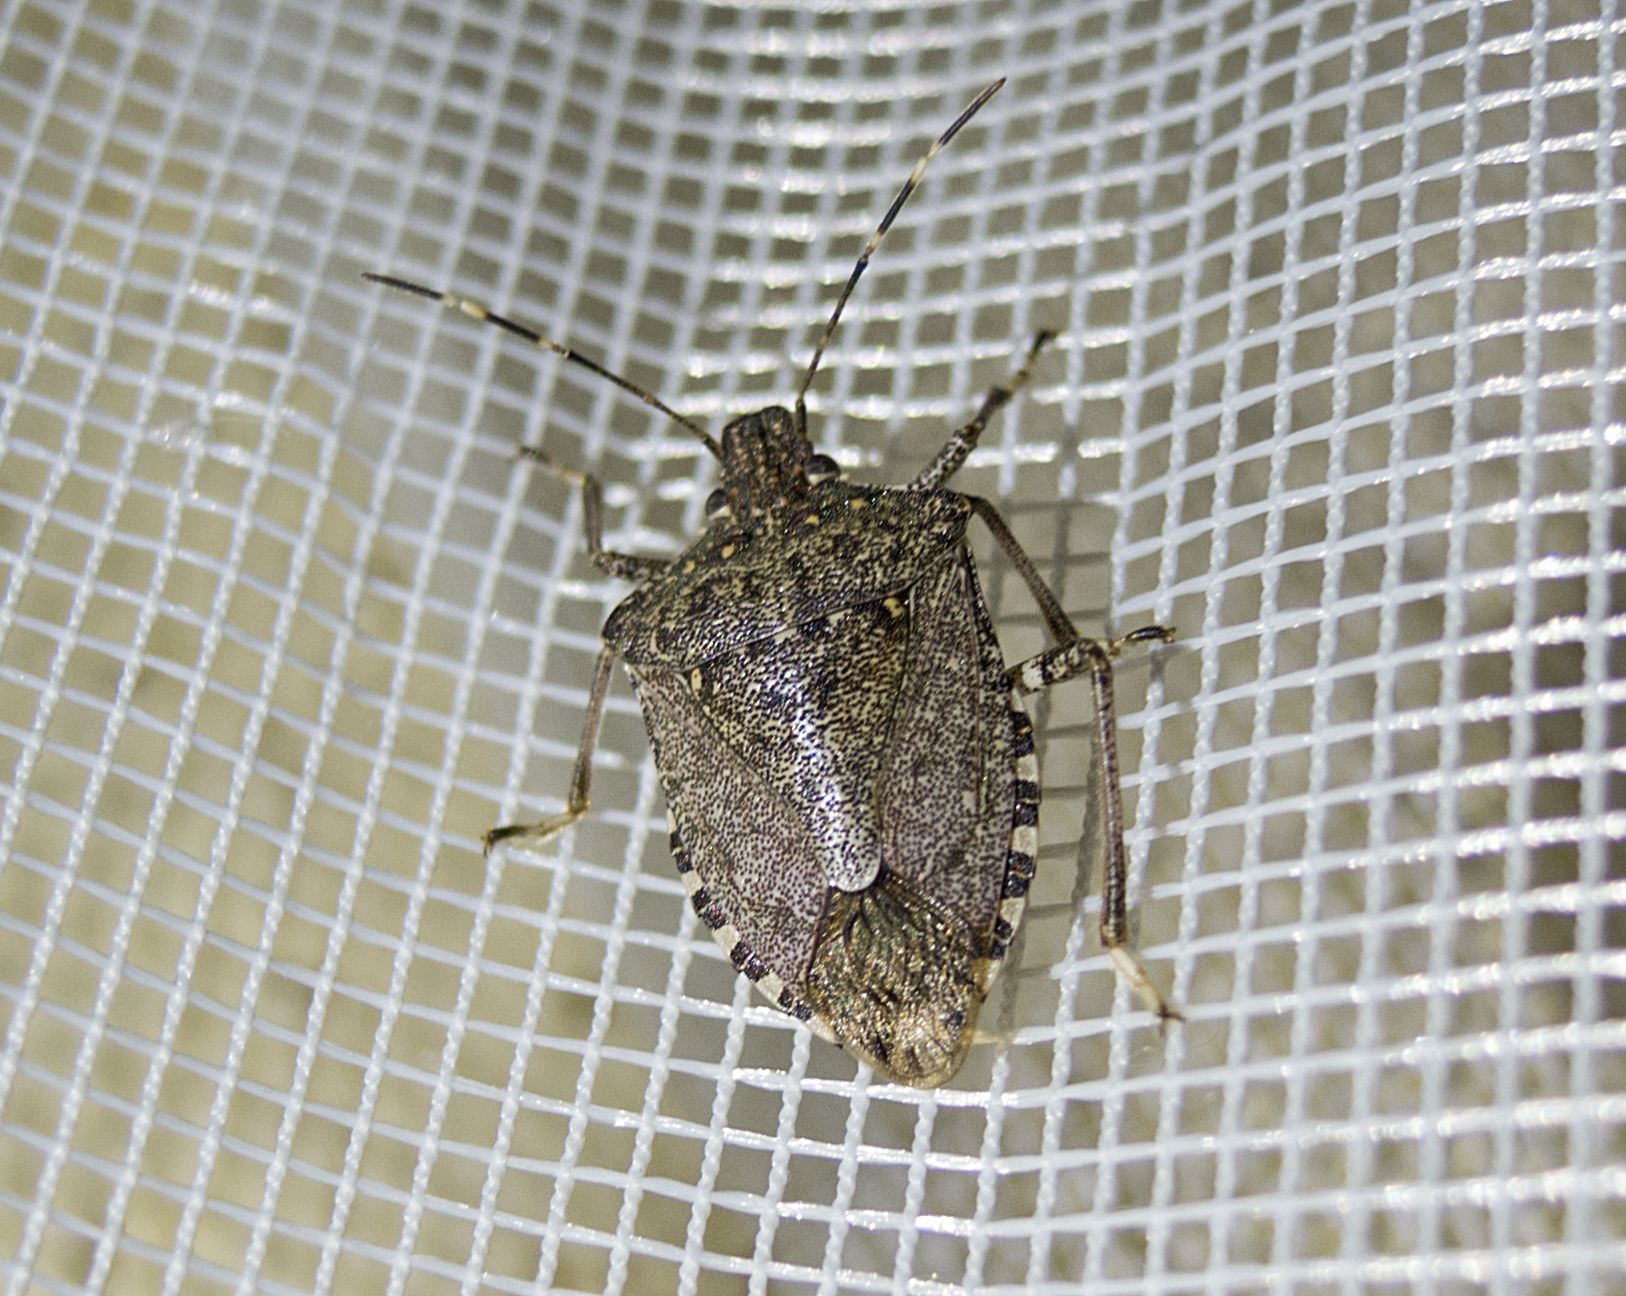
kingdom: Animalia
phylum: Arthropoda
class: Insecta
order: Hemiptera
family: Pentatomidae
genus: Halyomorpha
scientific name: Halyomorpha halys
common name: Brown marmorated stink bug
